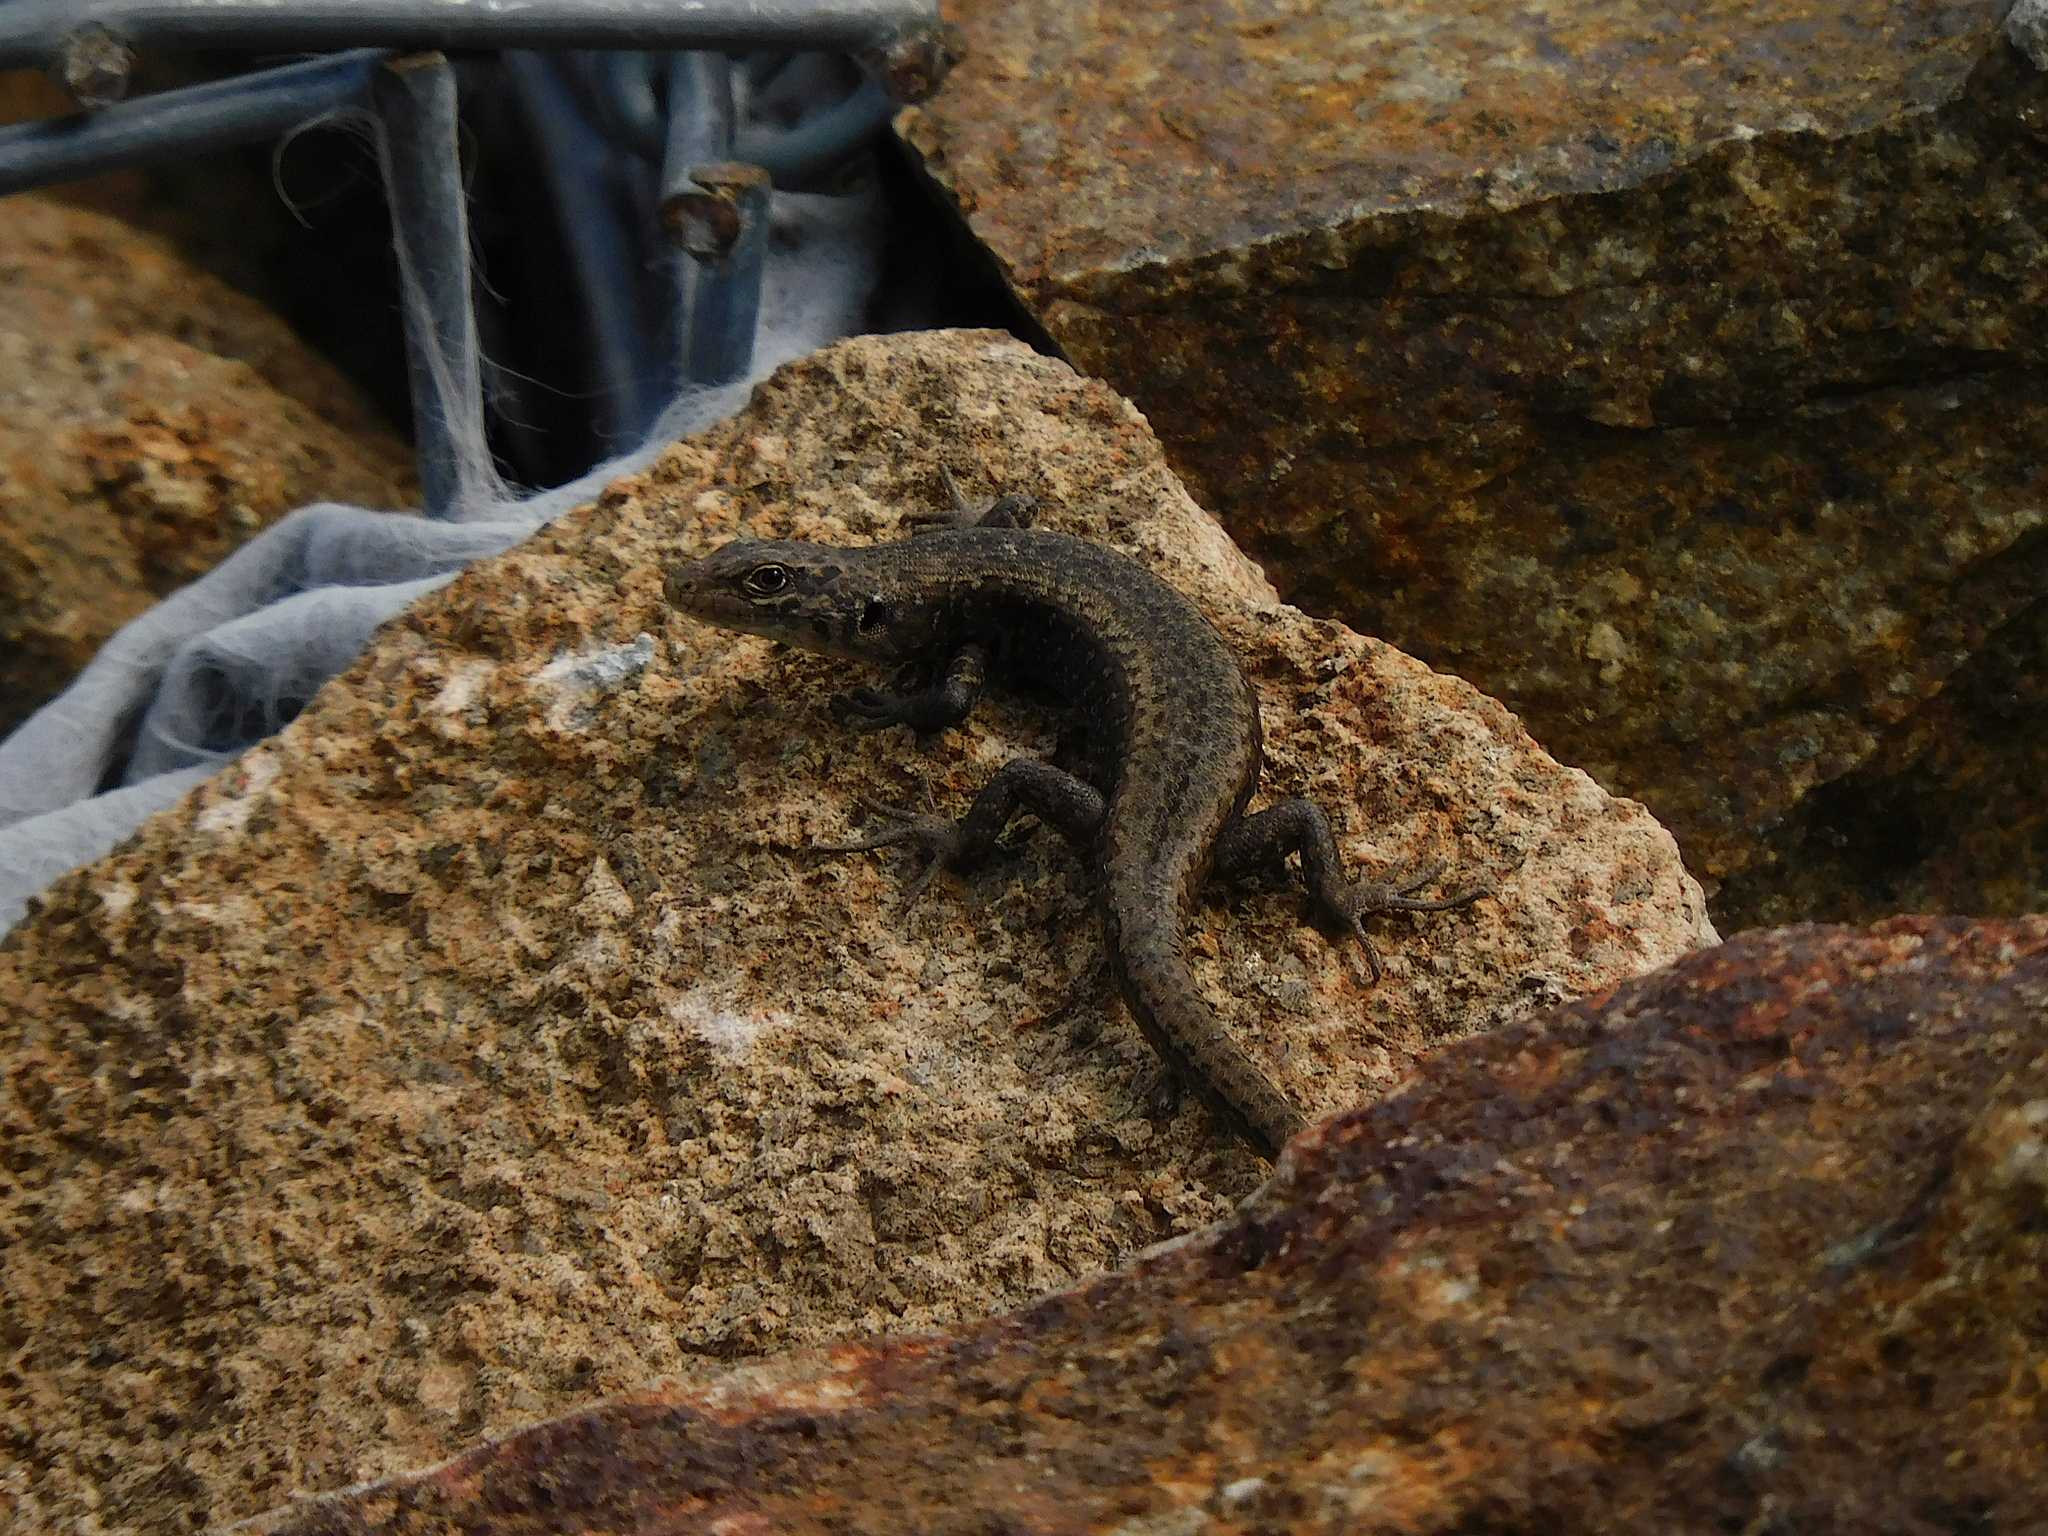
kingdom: Animalia
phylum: Chordata
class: Squamata
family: Scincidae
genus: Carinascincus
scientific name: Carinascincus ocellatus
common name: Ocellated cool-skink
